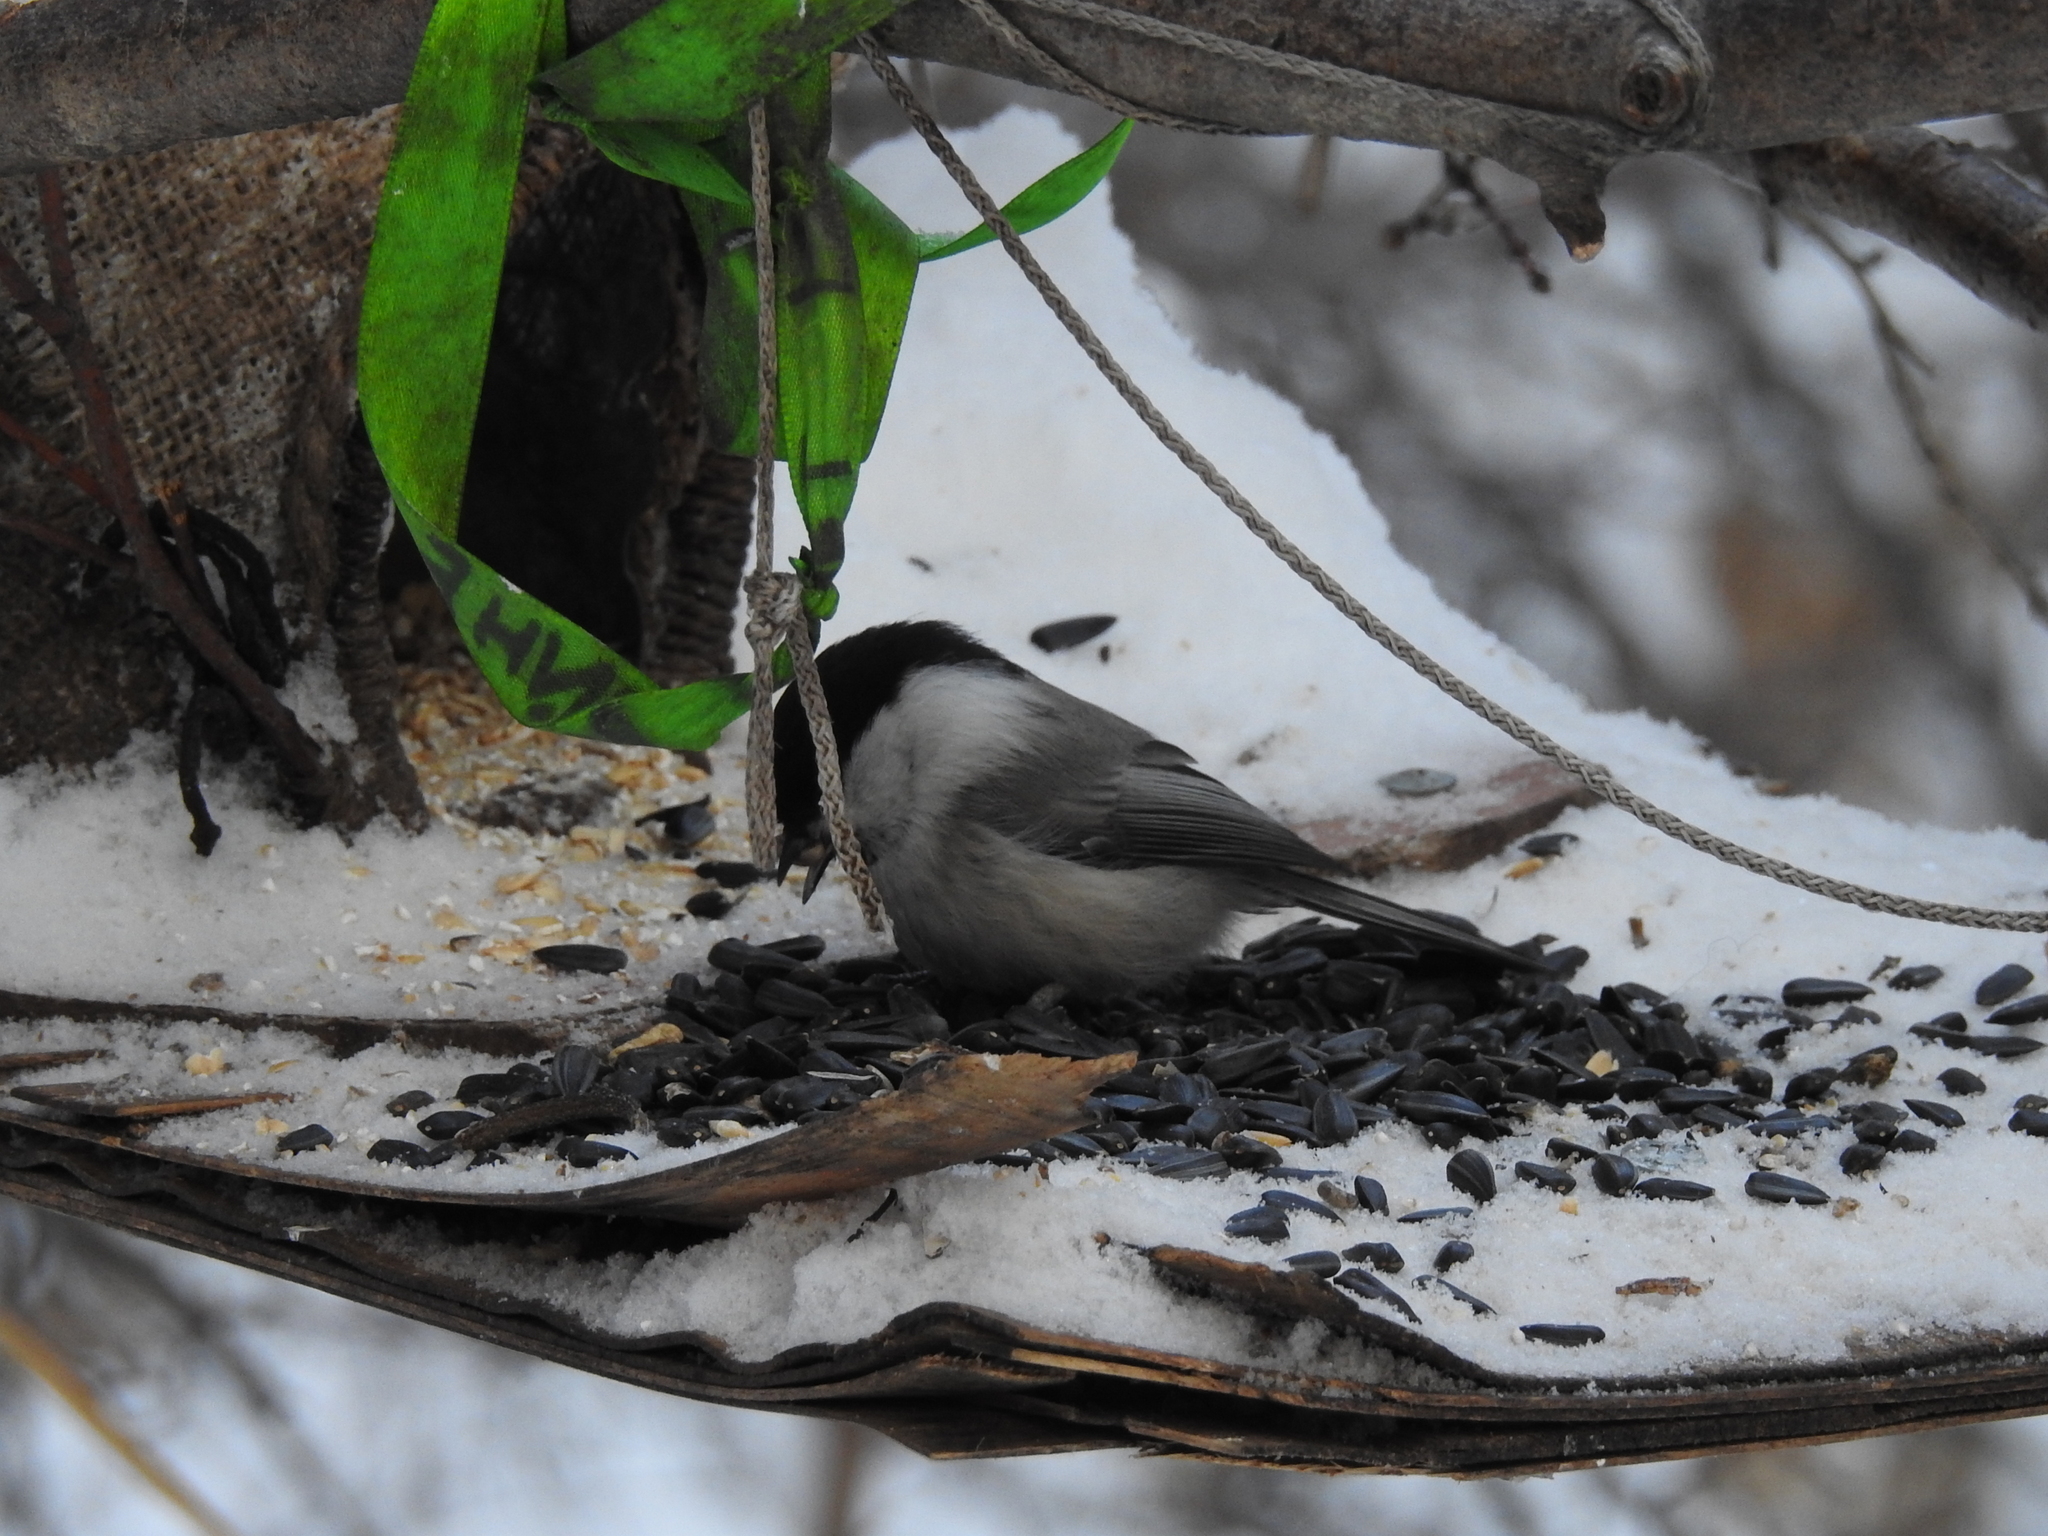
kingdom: Animalia
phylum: Chordata
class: Aves
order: Passeriformes
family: Paridae
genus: Poecile
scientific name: Poecile montanus
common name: Willow tit
